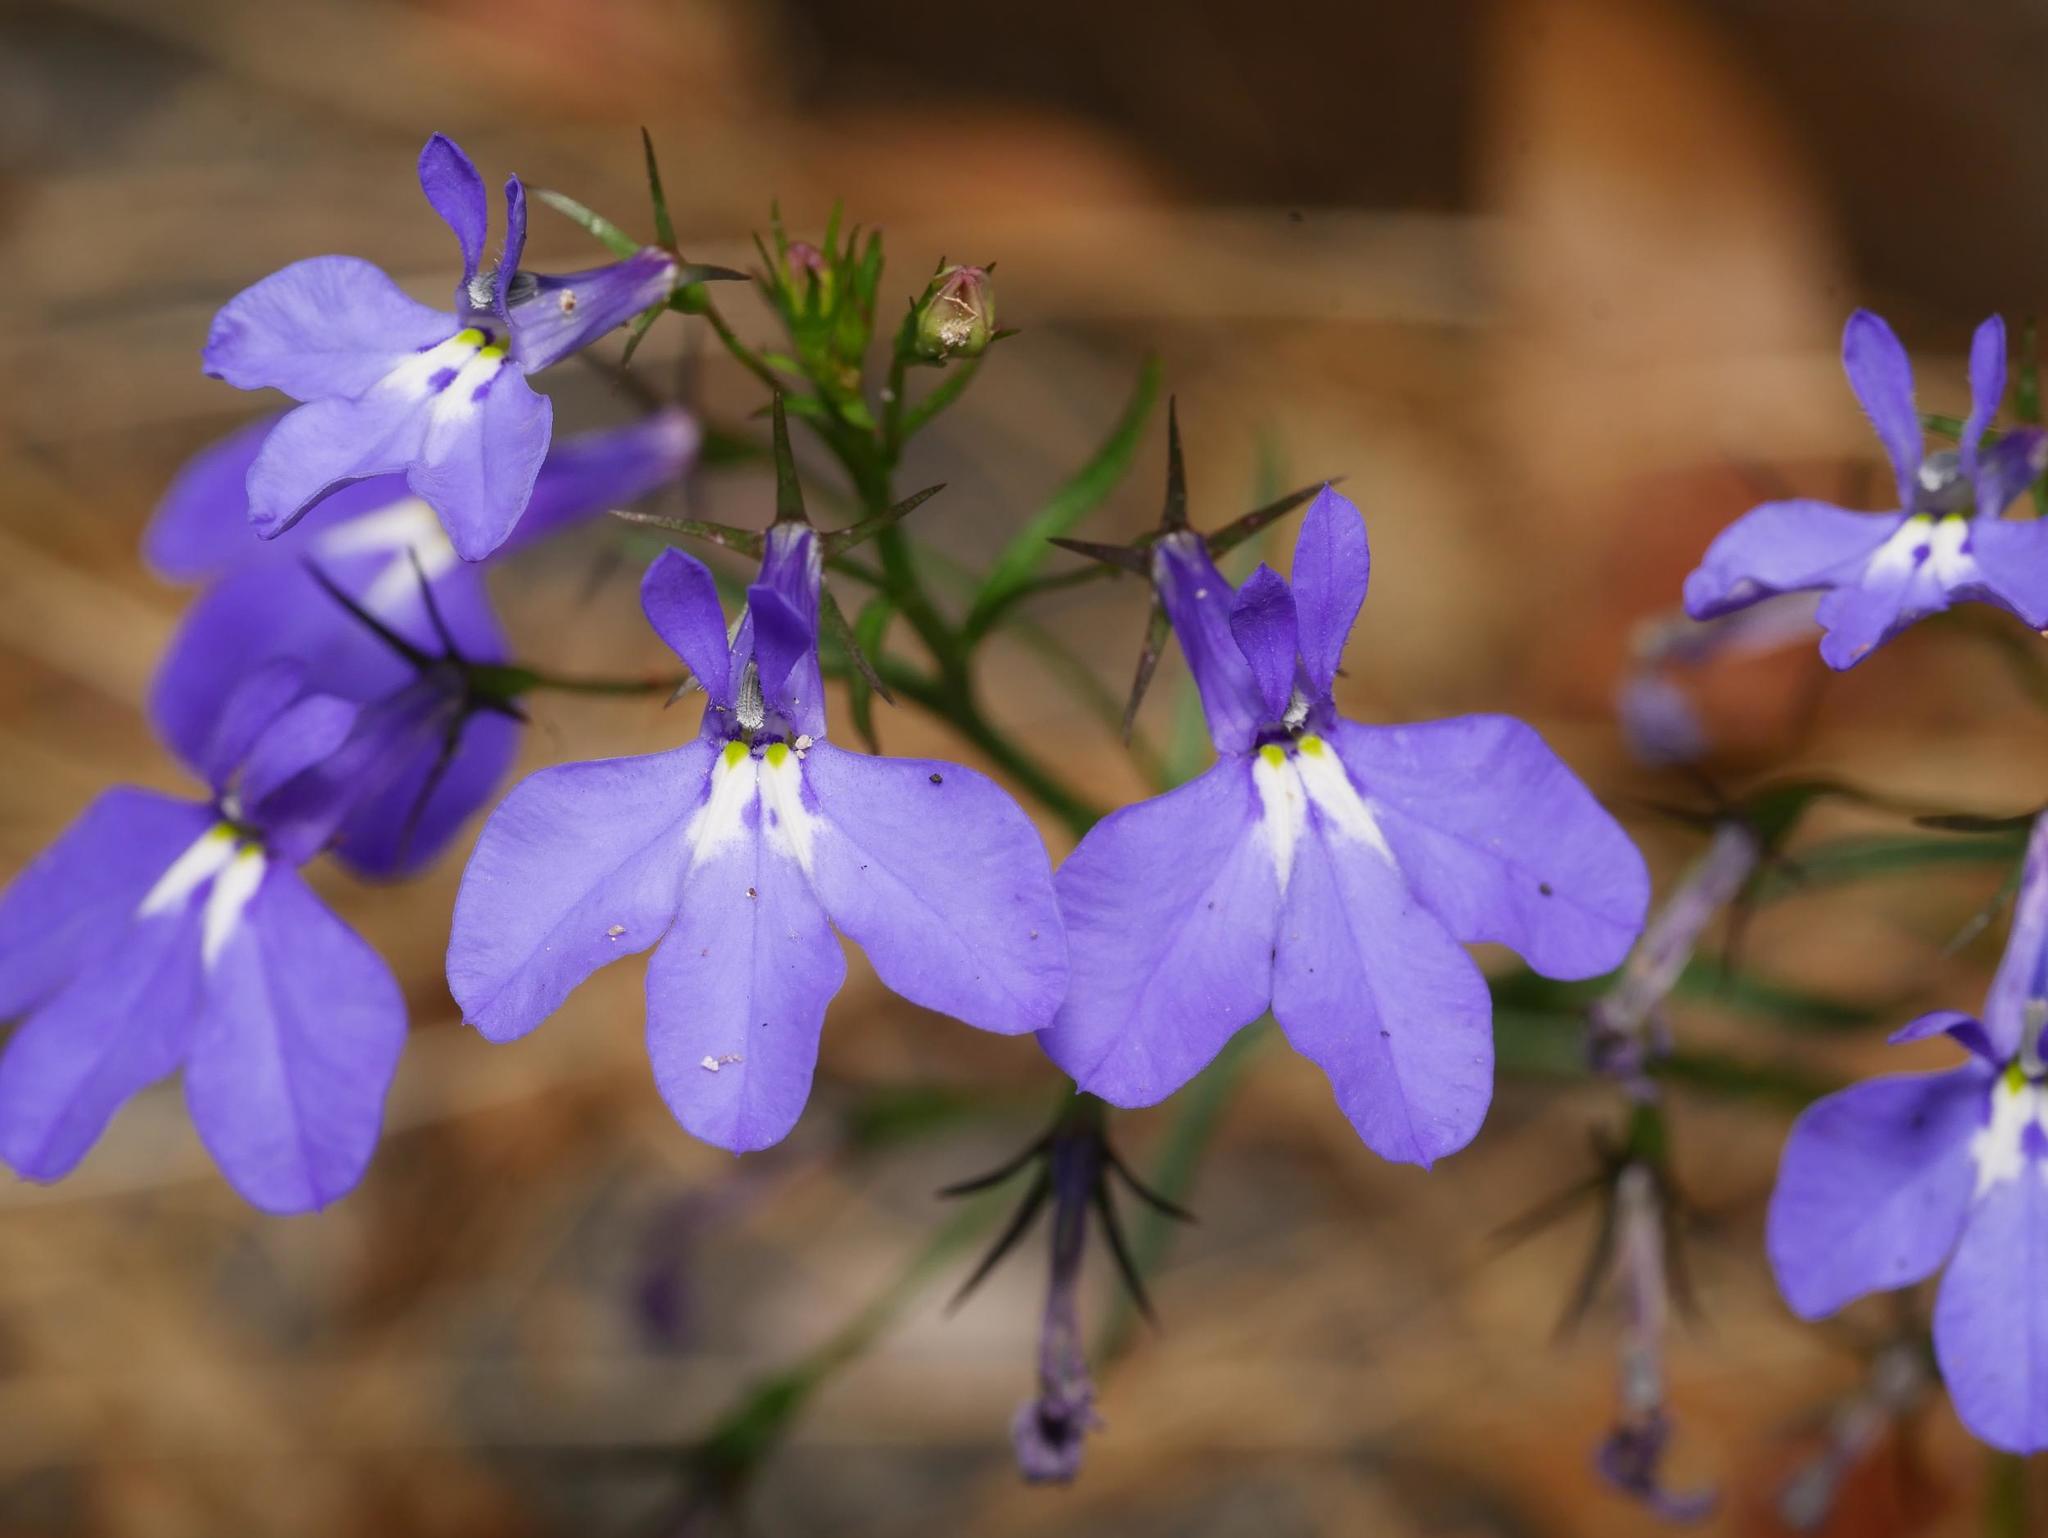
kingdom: Plantae
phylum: Tracheophyta
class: Magnoliopsida
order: Asterales
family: Campanulaceae
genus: Lobelia
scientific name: Lobelia erinus
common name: Edging lobelia
